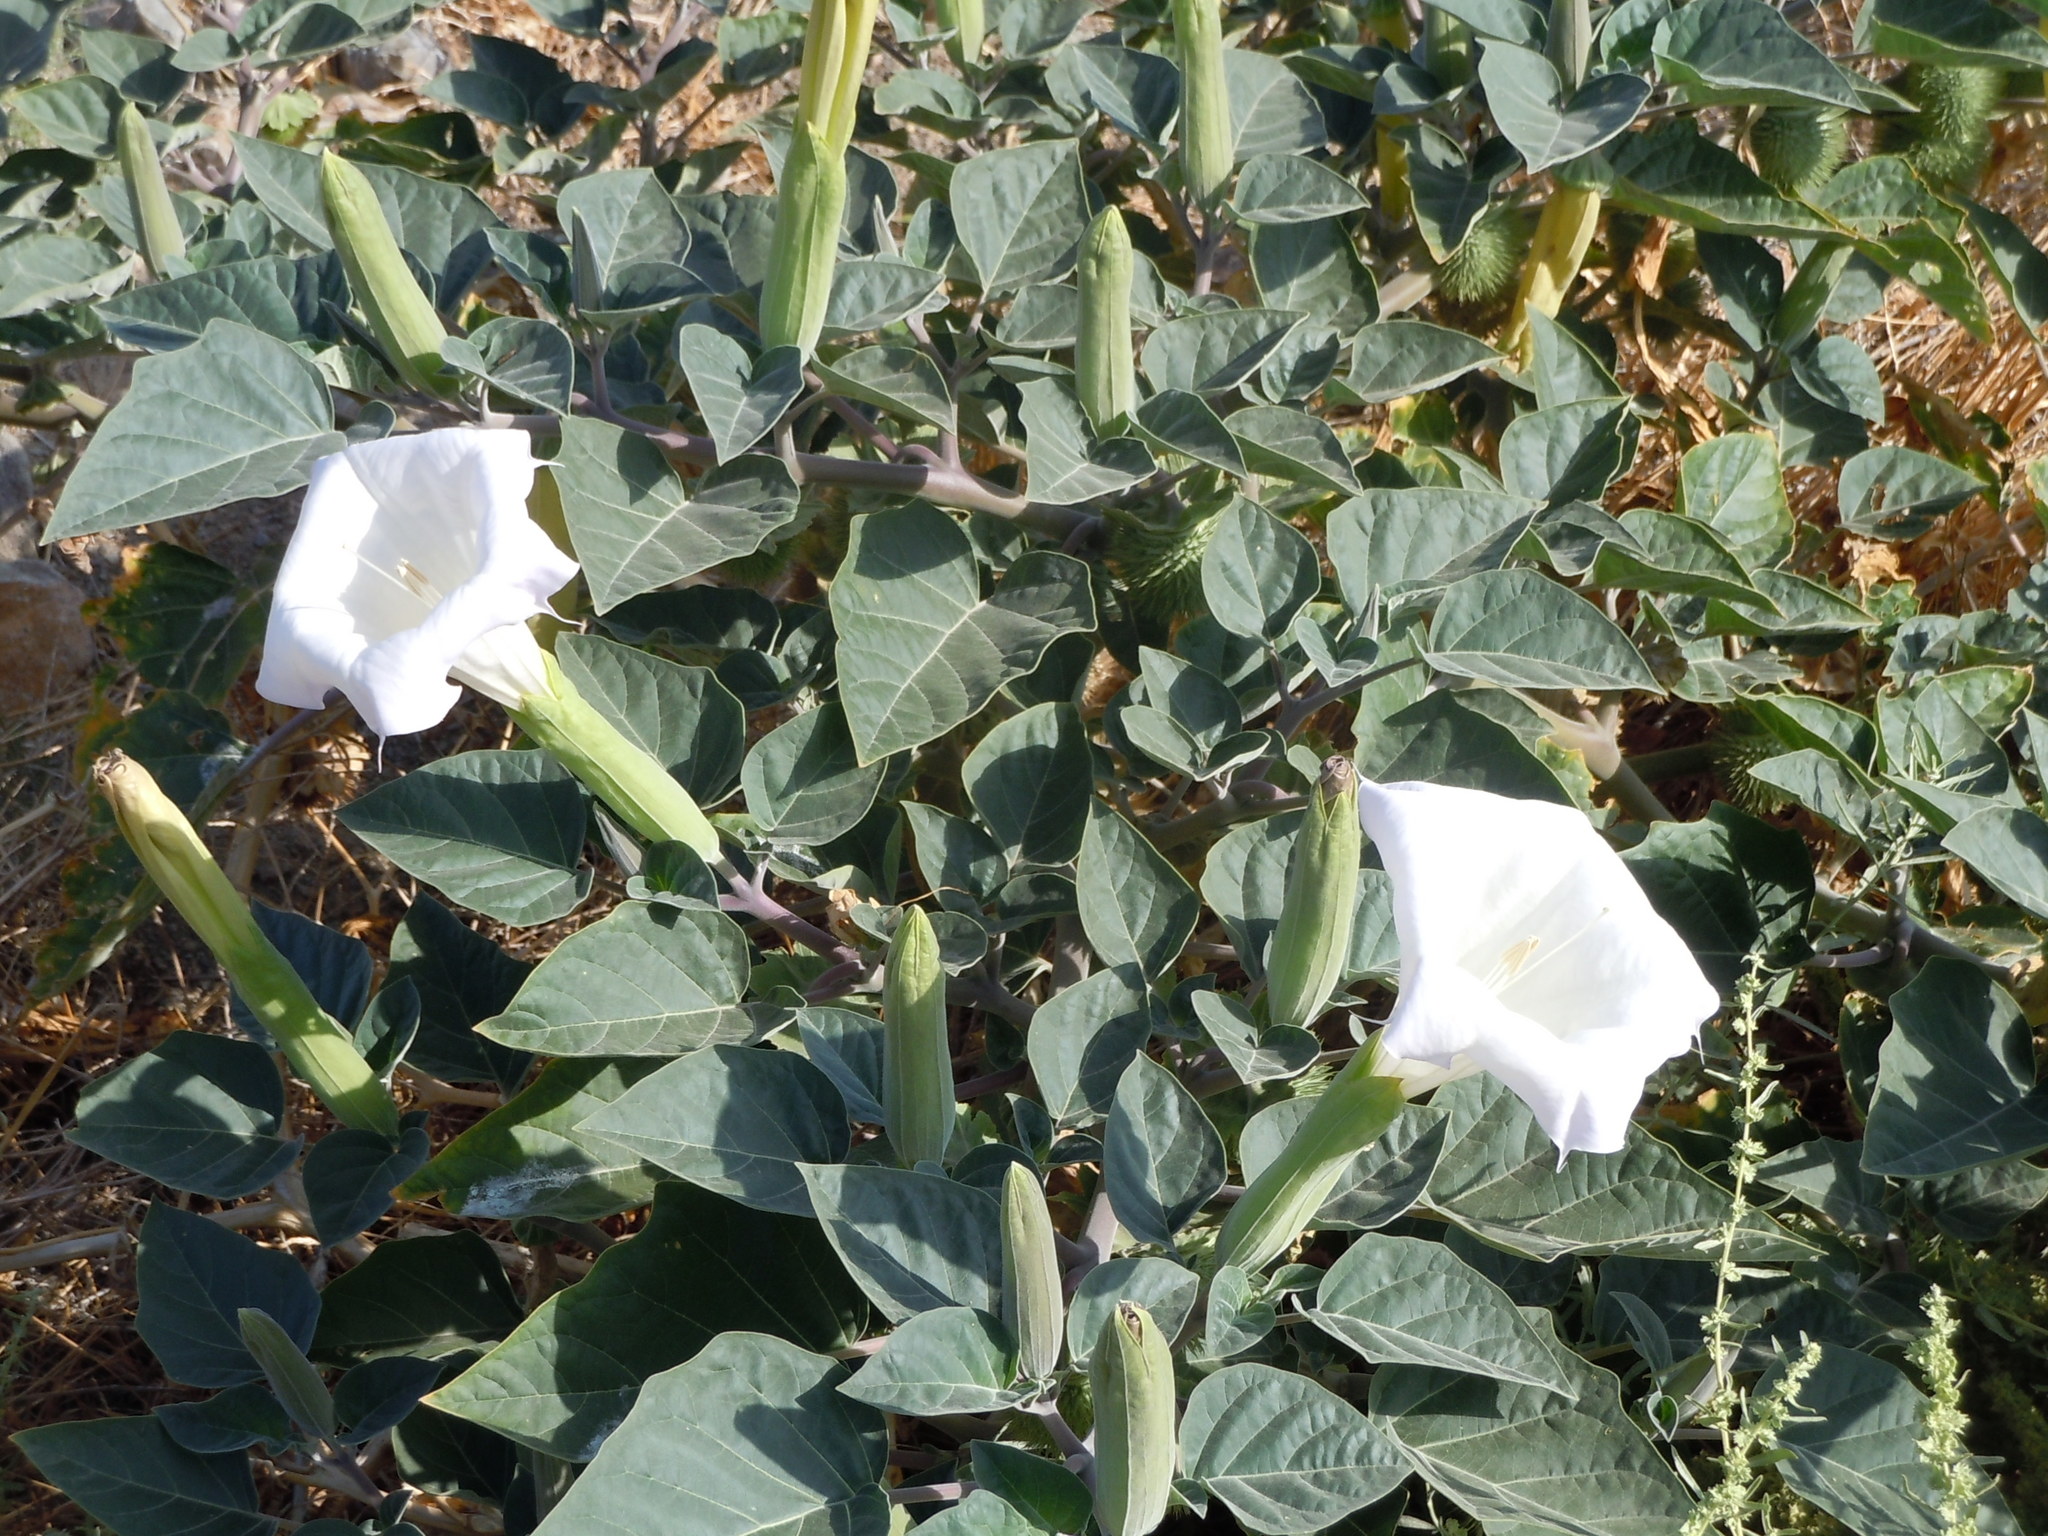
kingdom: Plantae
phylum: Tracheophyta
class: Magnoliopsida
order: Solanales
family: Solanaceae
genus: Datura
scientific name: Datura wrightii
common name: Sacred thorn-apple
